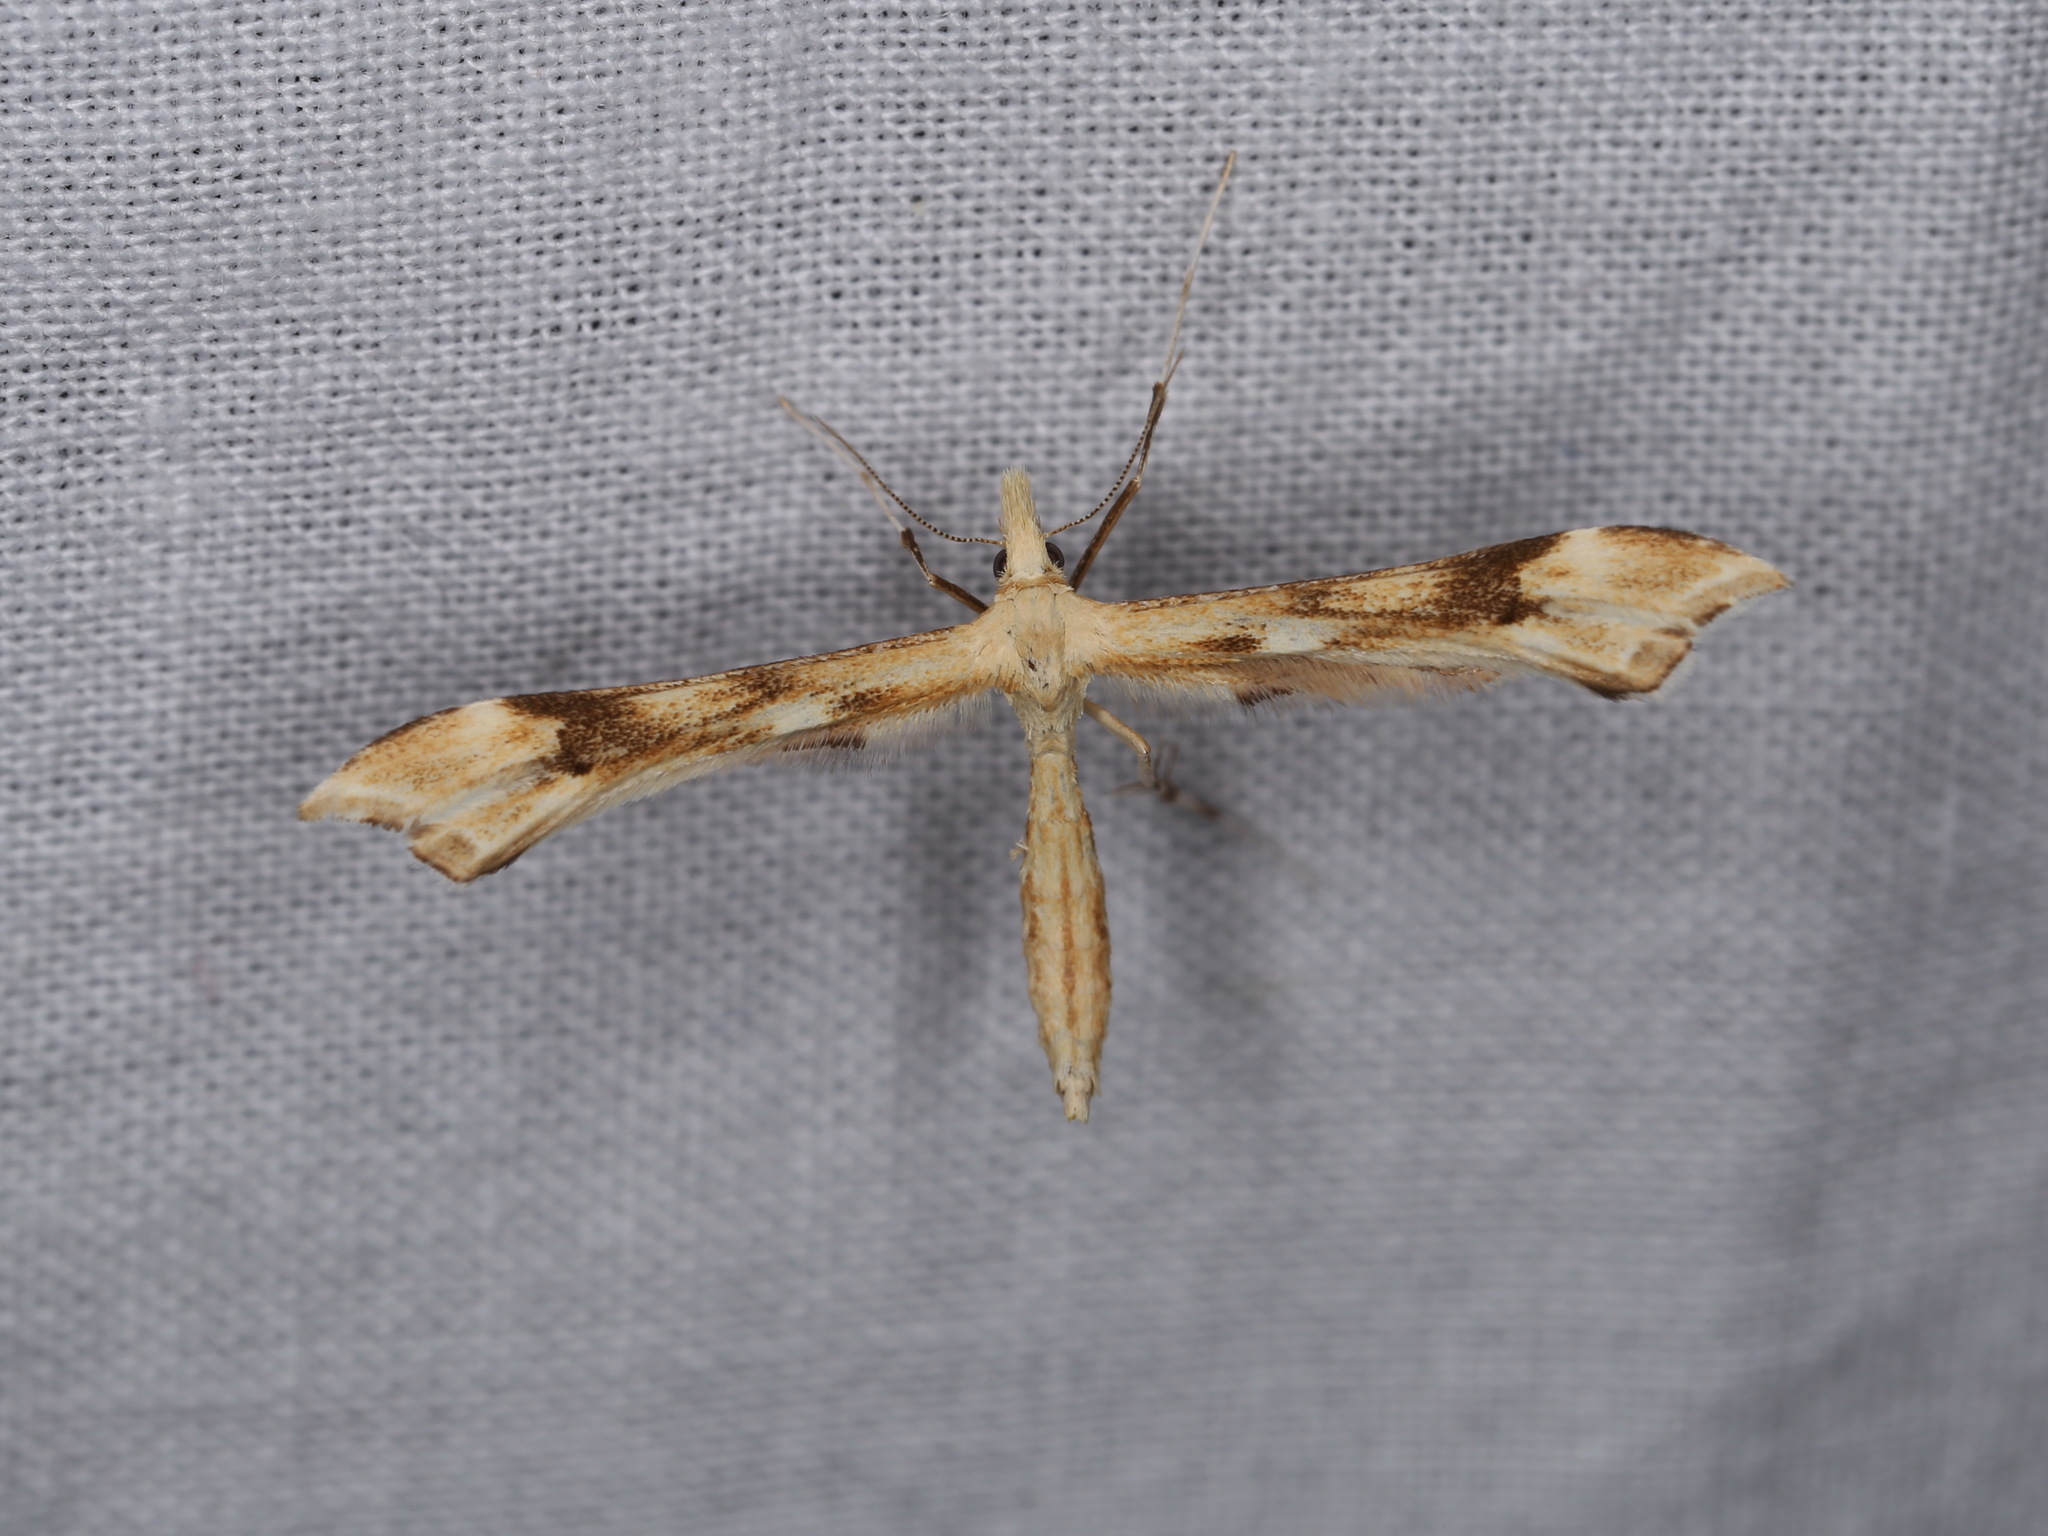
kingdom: Animalia
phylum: Arthropoda
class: Insecta
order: Lepidoptera
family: Pterophoridae
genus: Gillmeria
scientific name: Gillmeria ochrodactyla
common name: Tansy plume
